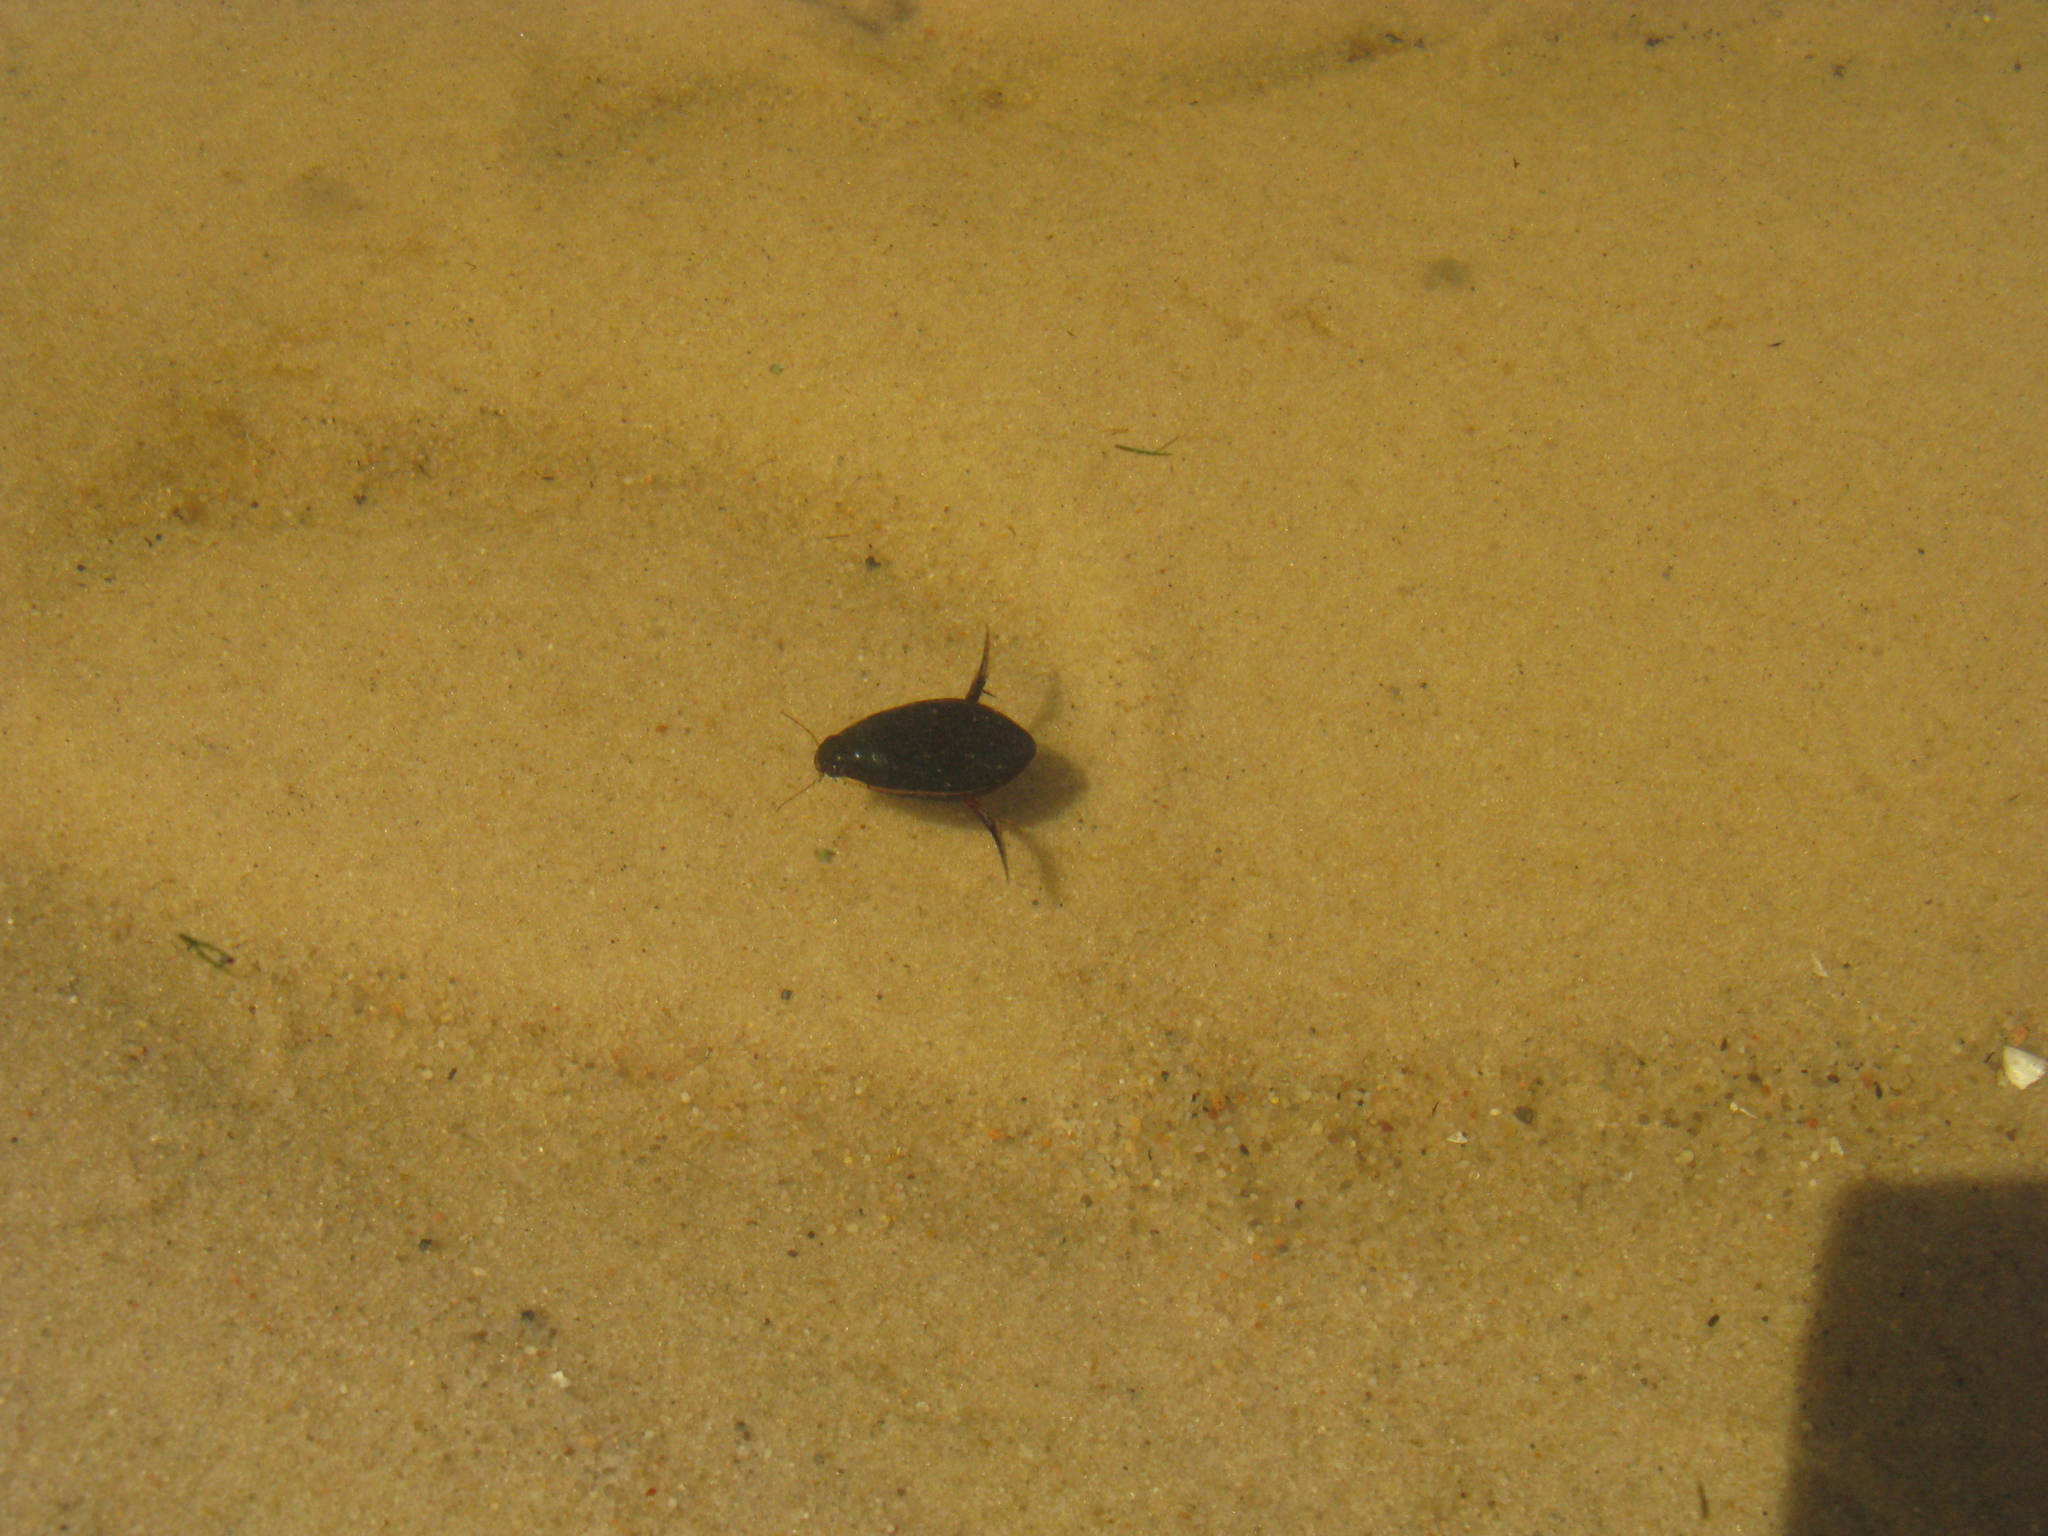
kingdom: Animalia
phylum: Arthropoda
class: Insecta
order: Coleoptera
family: Dytiscidae
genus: Cybister
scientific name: Cybister lateralimarginalis
